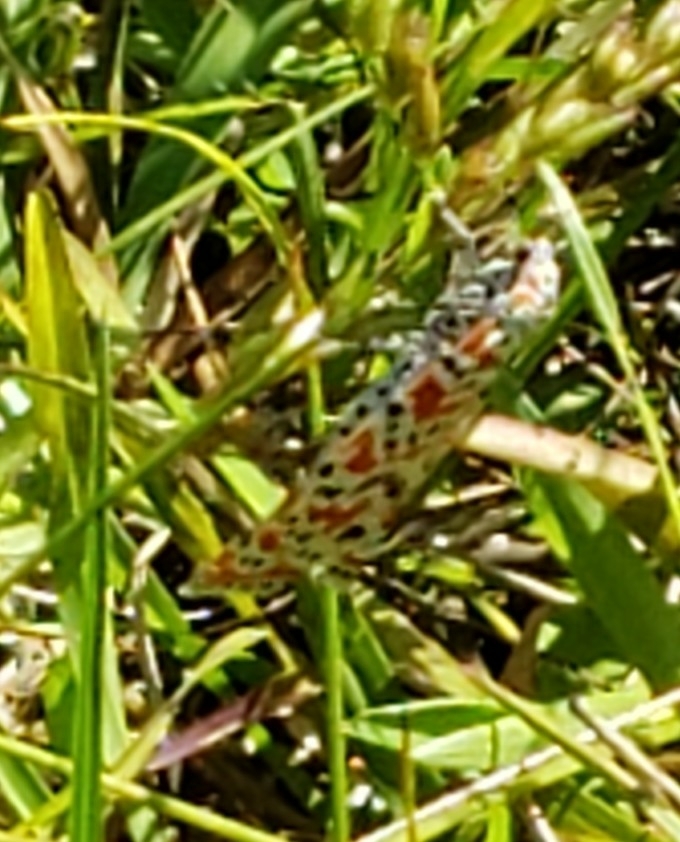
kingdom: Animalia
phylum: Arthropoda
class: Insecta
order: Lepidoptera
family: Erebidae
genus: Utetheisa
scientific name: Utetheisa ornatrix
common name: Beautiful utetheisa
